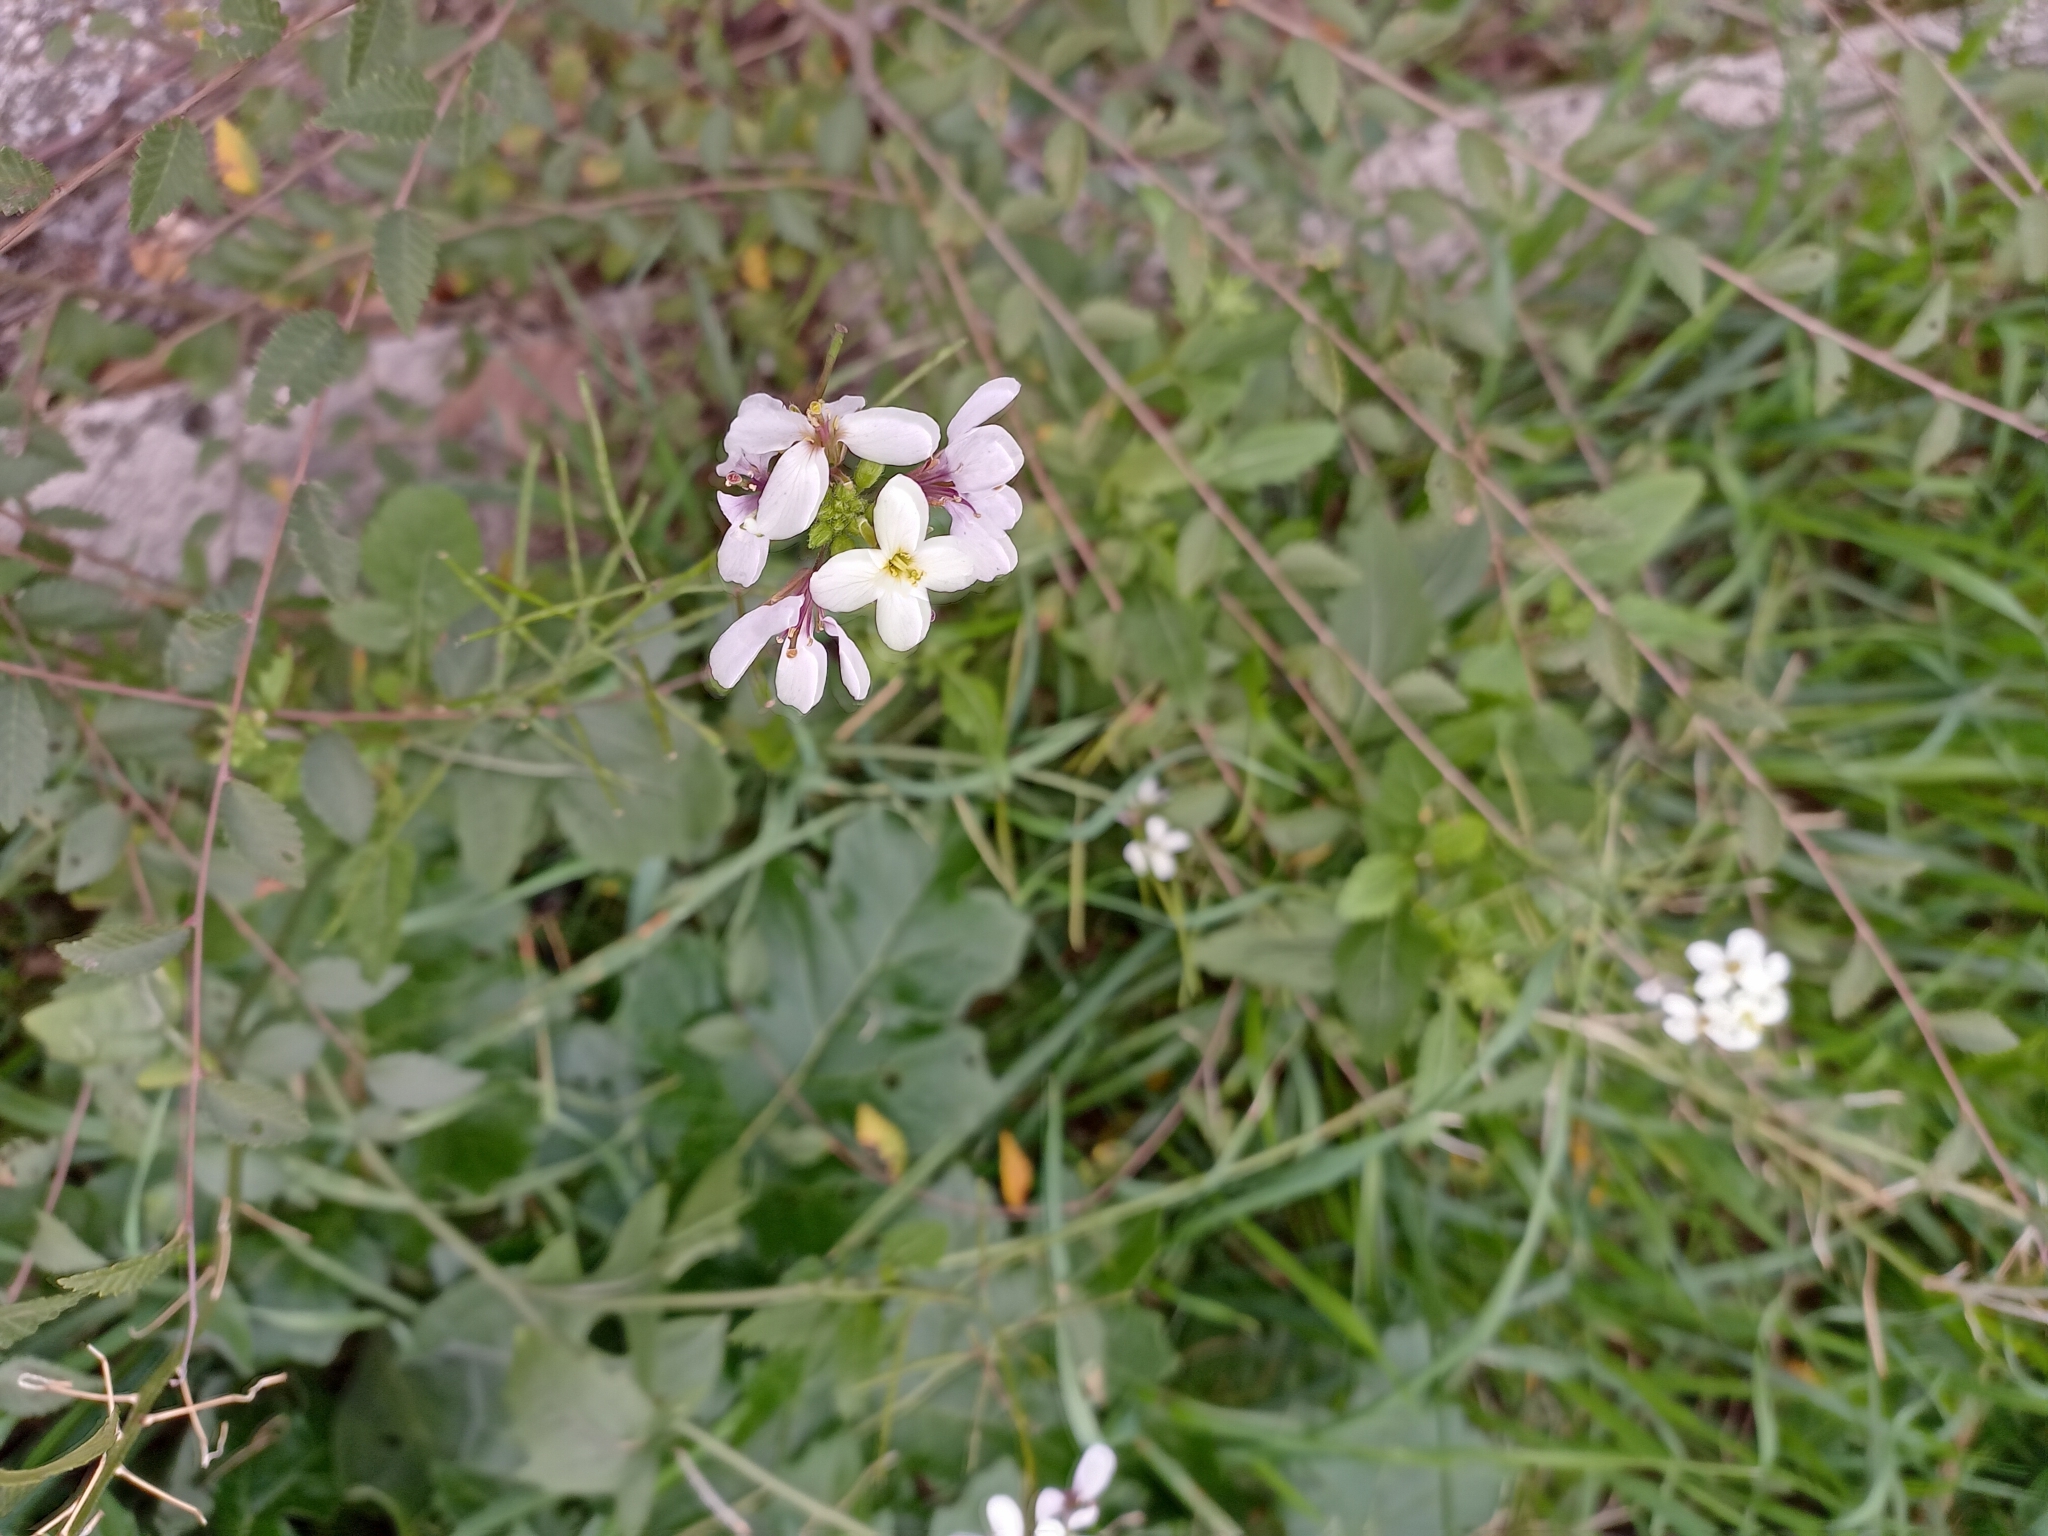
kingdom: Plantae
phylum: Tracheophyta
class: Magnoliopsida
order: Brassicales
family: Brassicaceae
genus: Diplotaxis
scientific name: Diplotaxis erucoides
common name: White rocket
